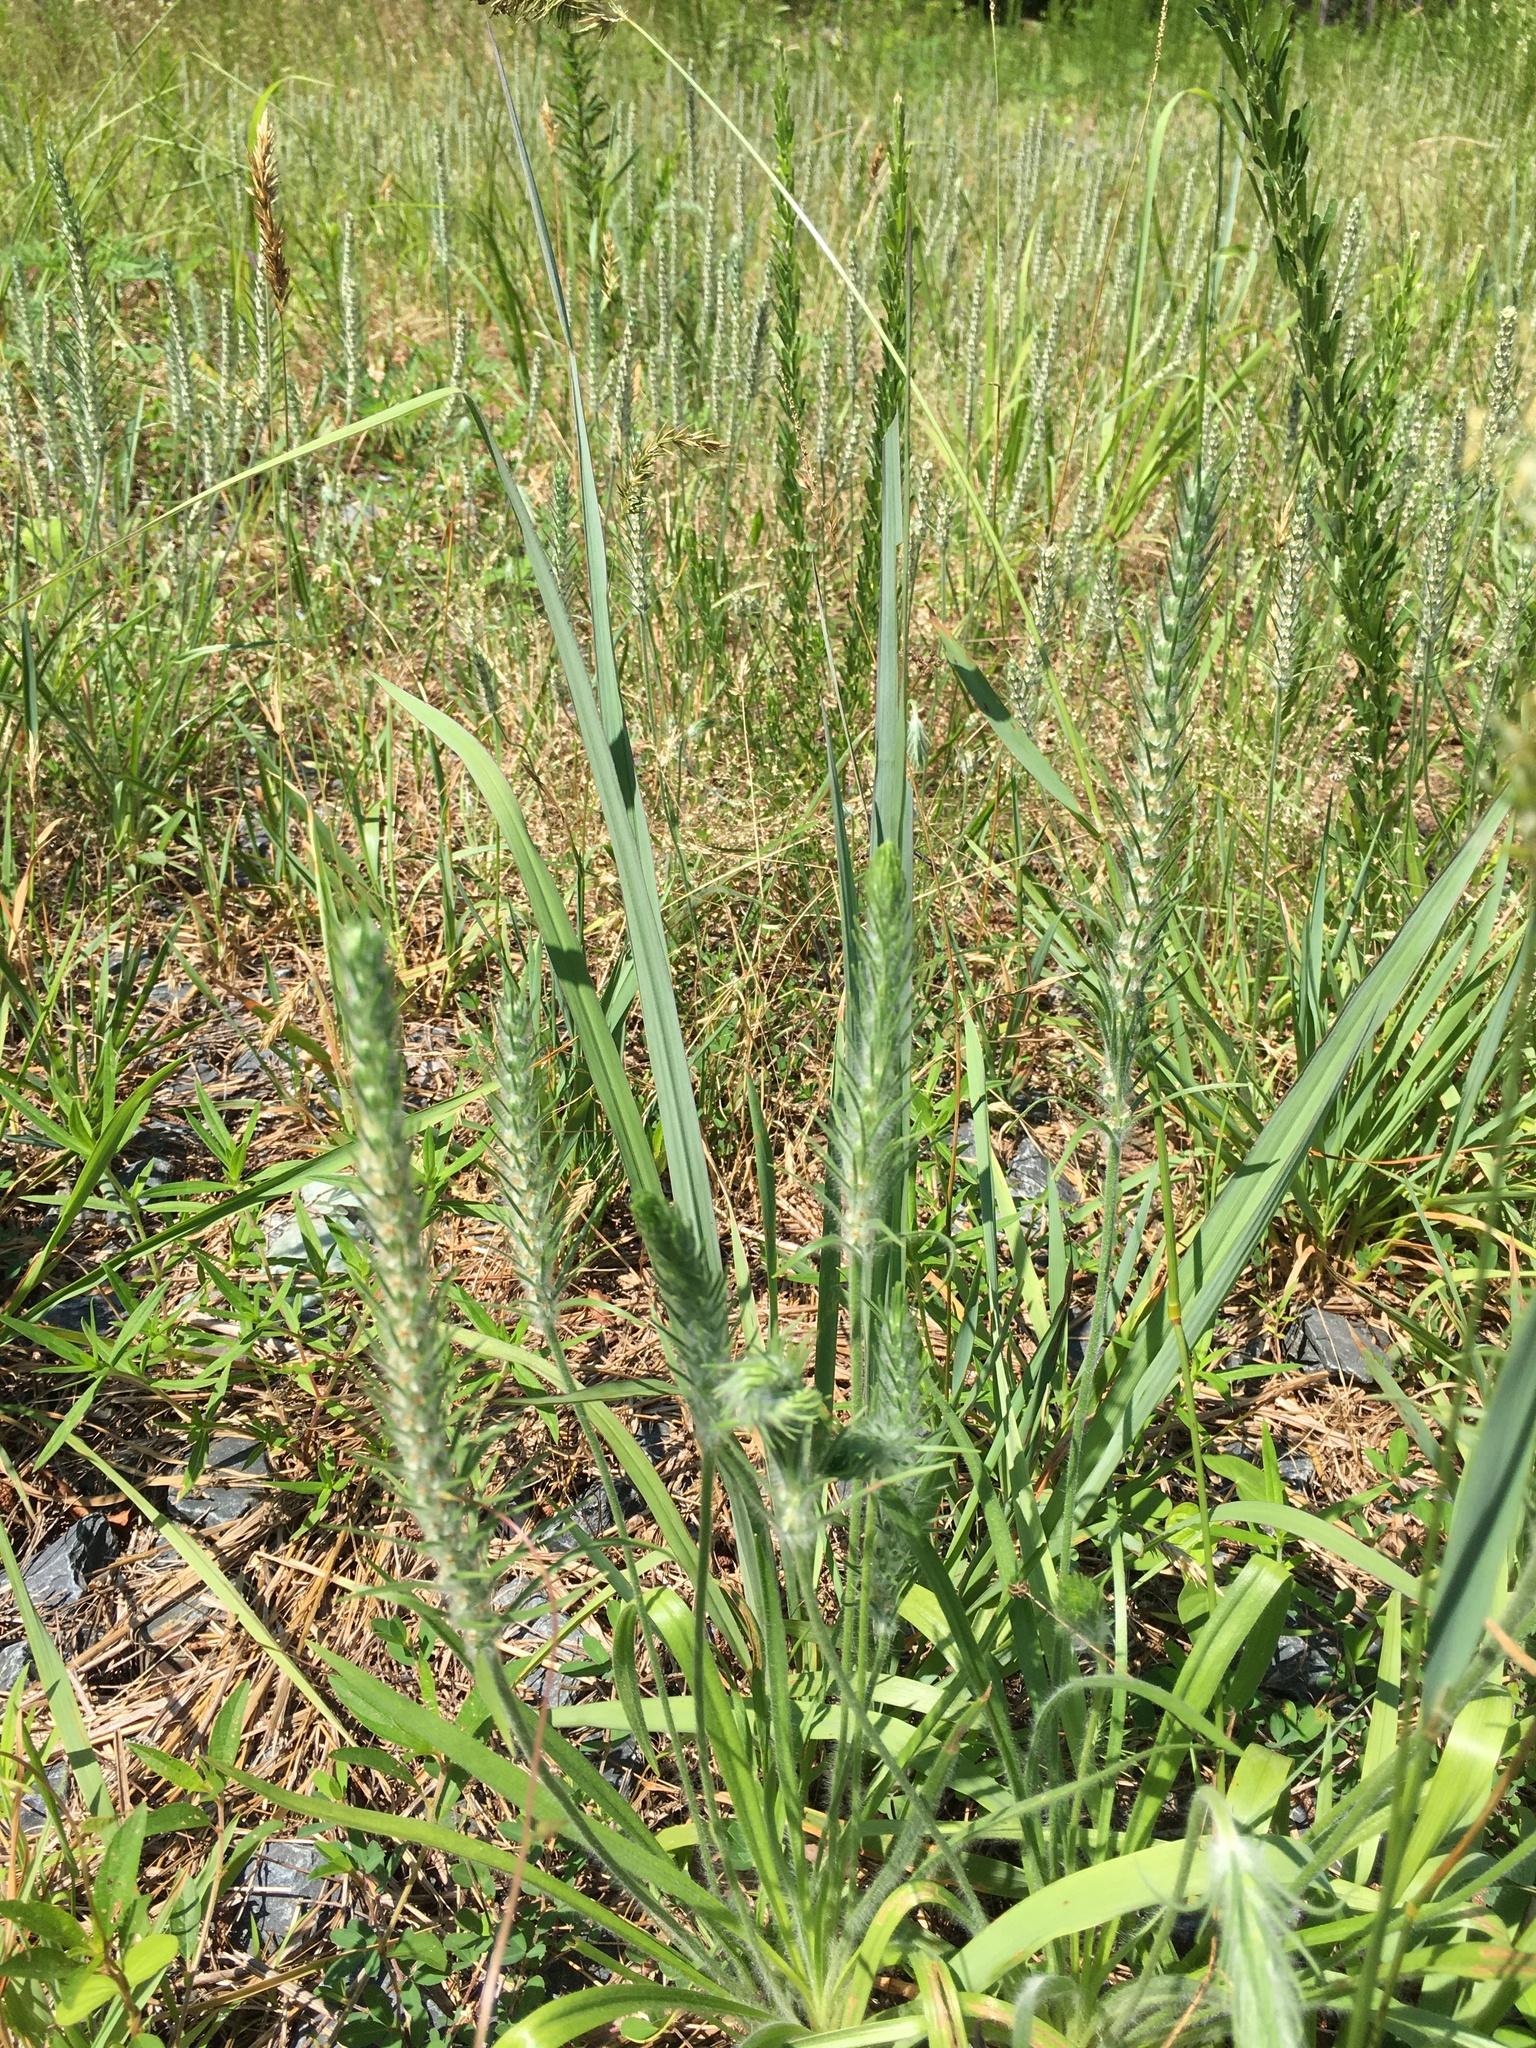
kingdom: Plantae
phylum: Tracheophyta
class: Magnoliopsida
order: Lamiales
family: Plantaginaceae
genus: Plantago
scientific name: Plantago aristata
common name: Bracted plantain
